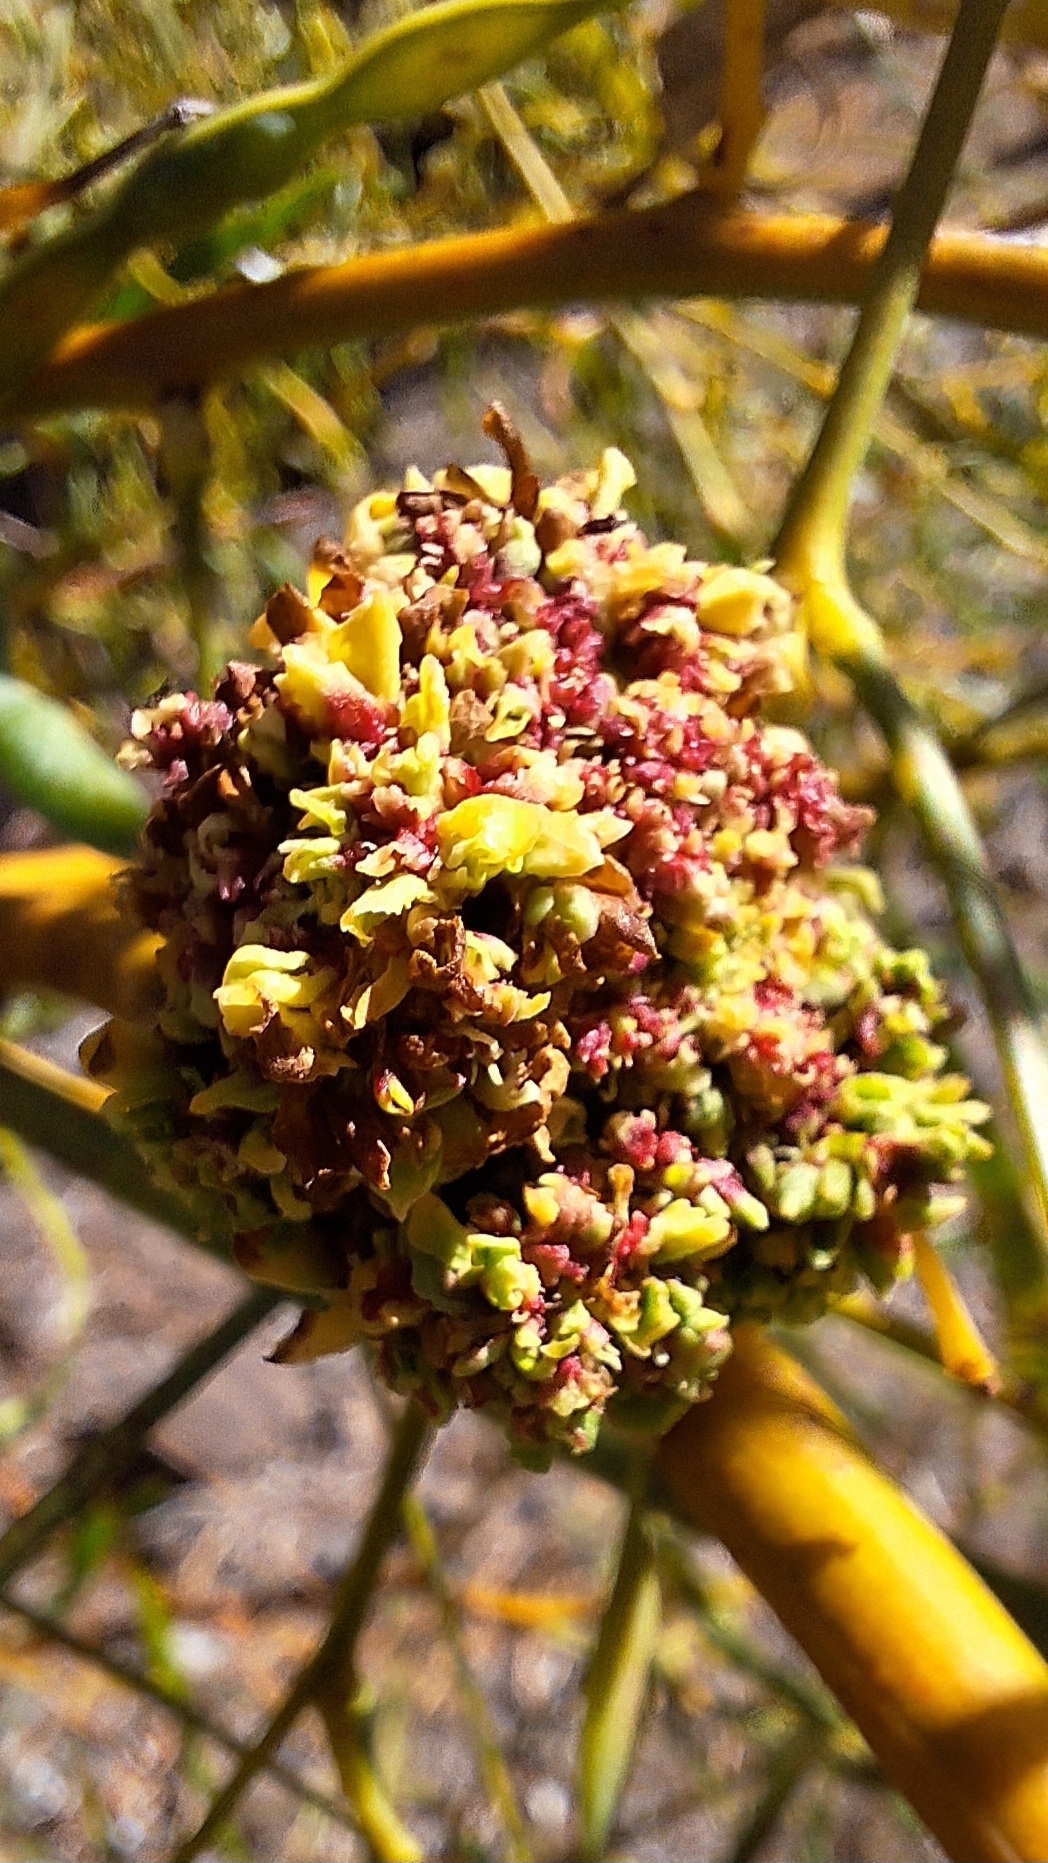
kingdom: Bacteria
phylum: Firmicutes
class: Bacilli
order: Acholeplasmatales
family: Acholeplasmataceae
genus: Phytoplasma
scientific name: Phytoplasma
